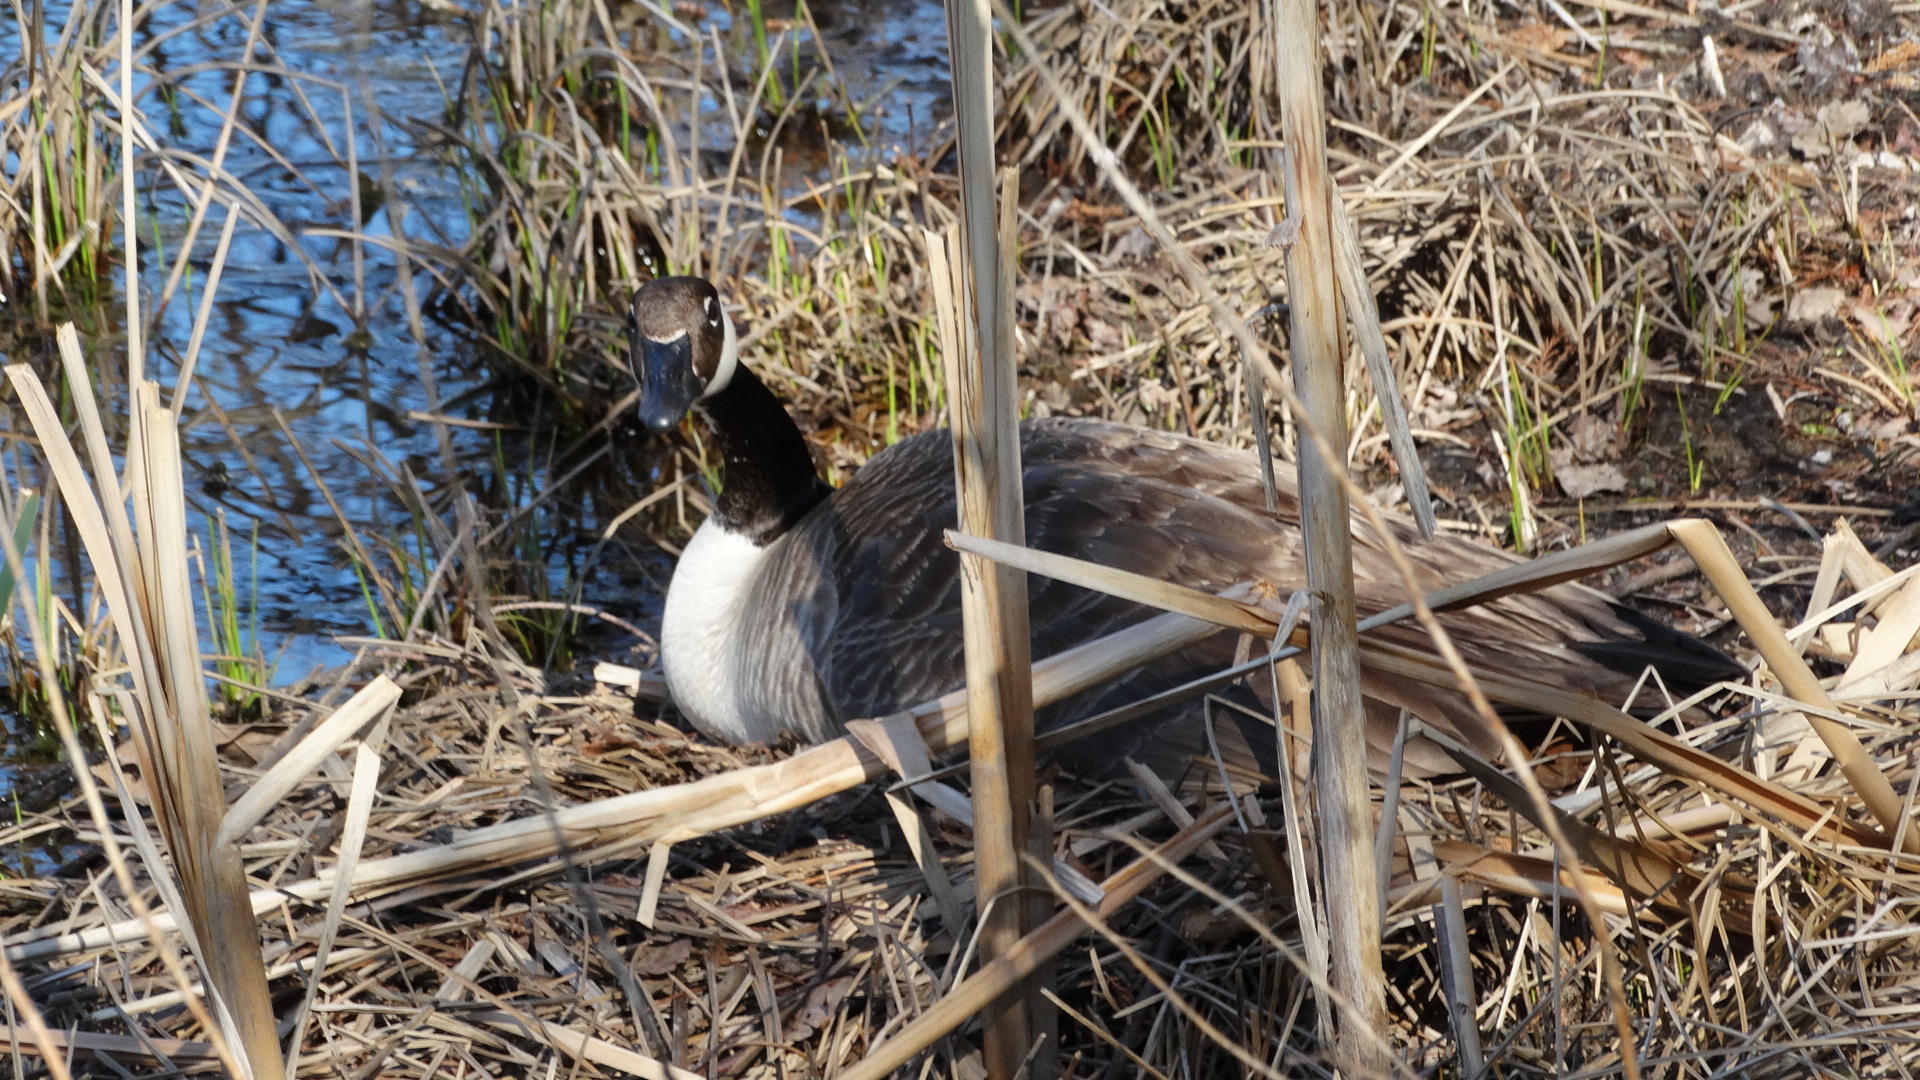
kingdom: Animalia
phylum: Chordata
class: Aves
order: Anseriformes
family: Anatidae
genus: Branta
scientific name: Branta canadensis
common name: Canada goose
